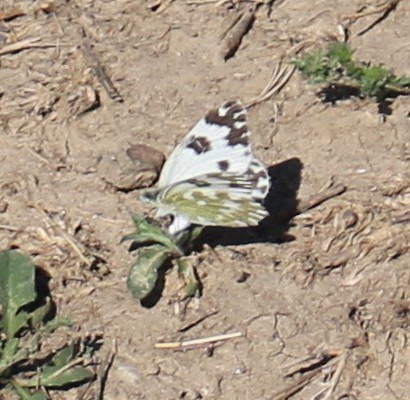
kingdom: Animalia
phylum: Arthropoda
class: Insecta
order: Lepidoptera
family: Pieridae
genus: Pontia
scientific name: Pontia edusa
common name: Eastern bath white
